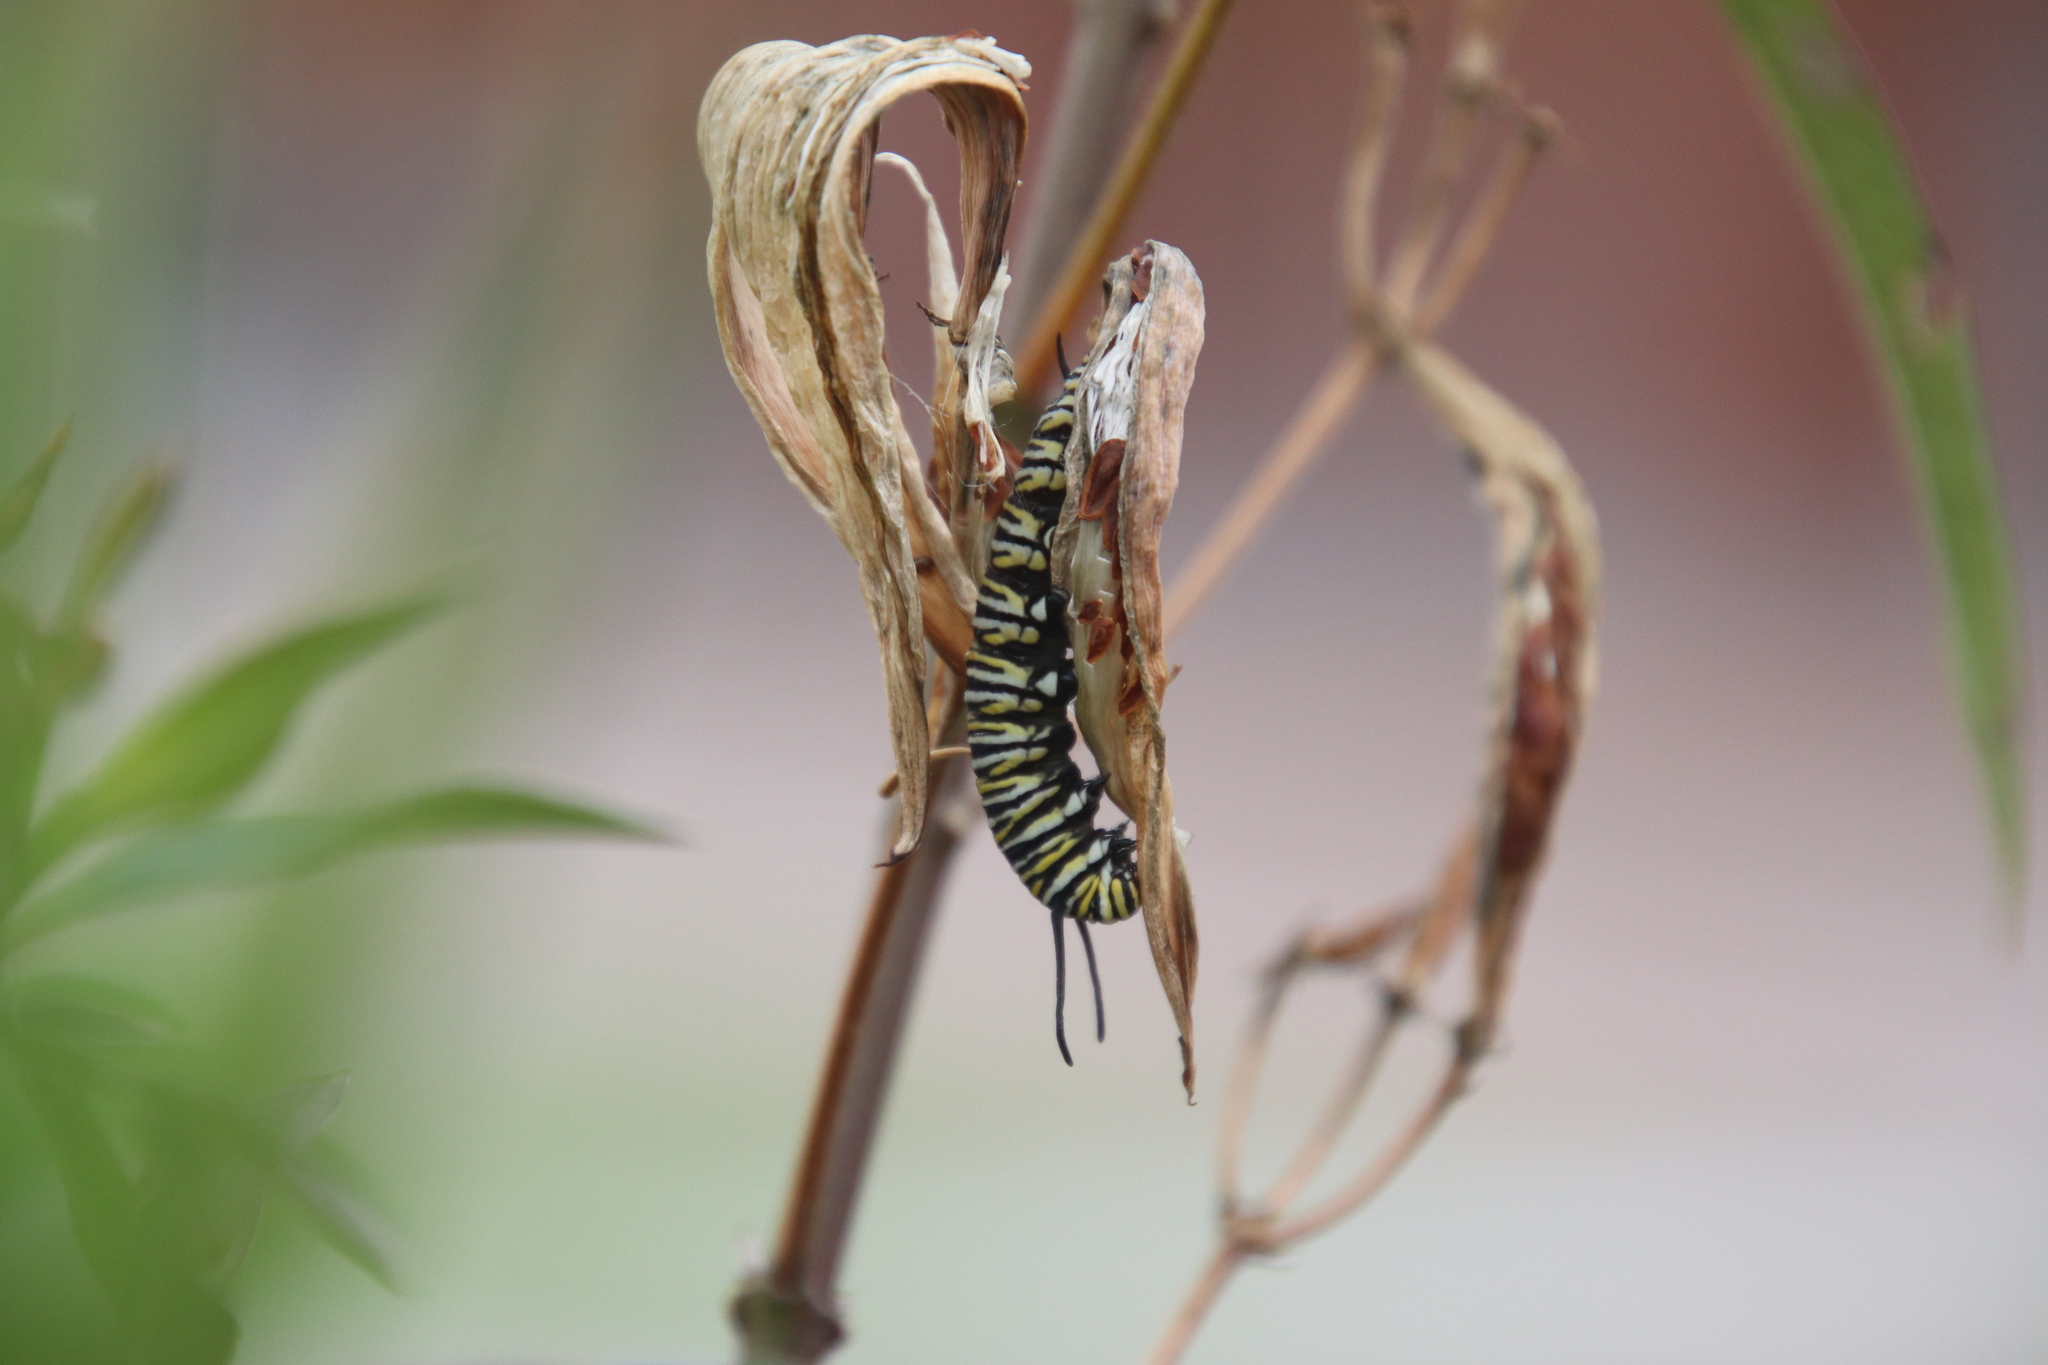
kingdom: Animalia
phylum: Arthropoda
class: Insecta
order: Lepidoptera
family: Nymphalidae
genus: Danaus
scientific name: Danaus plexippus
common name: Monarch
